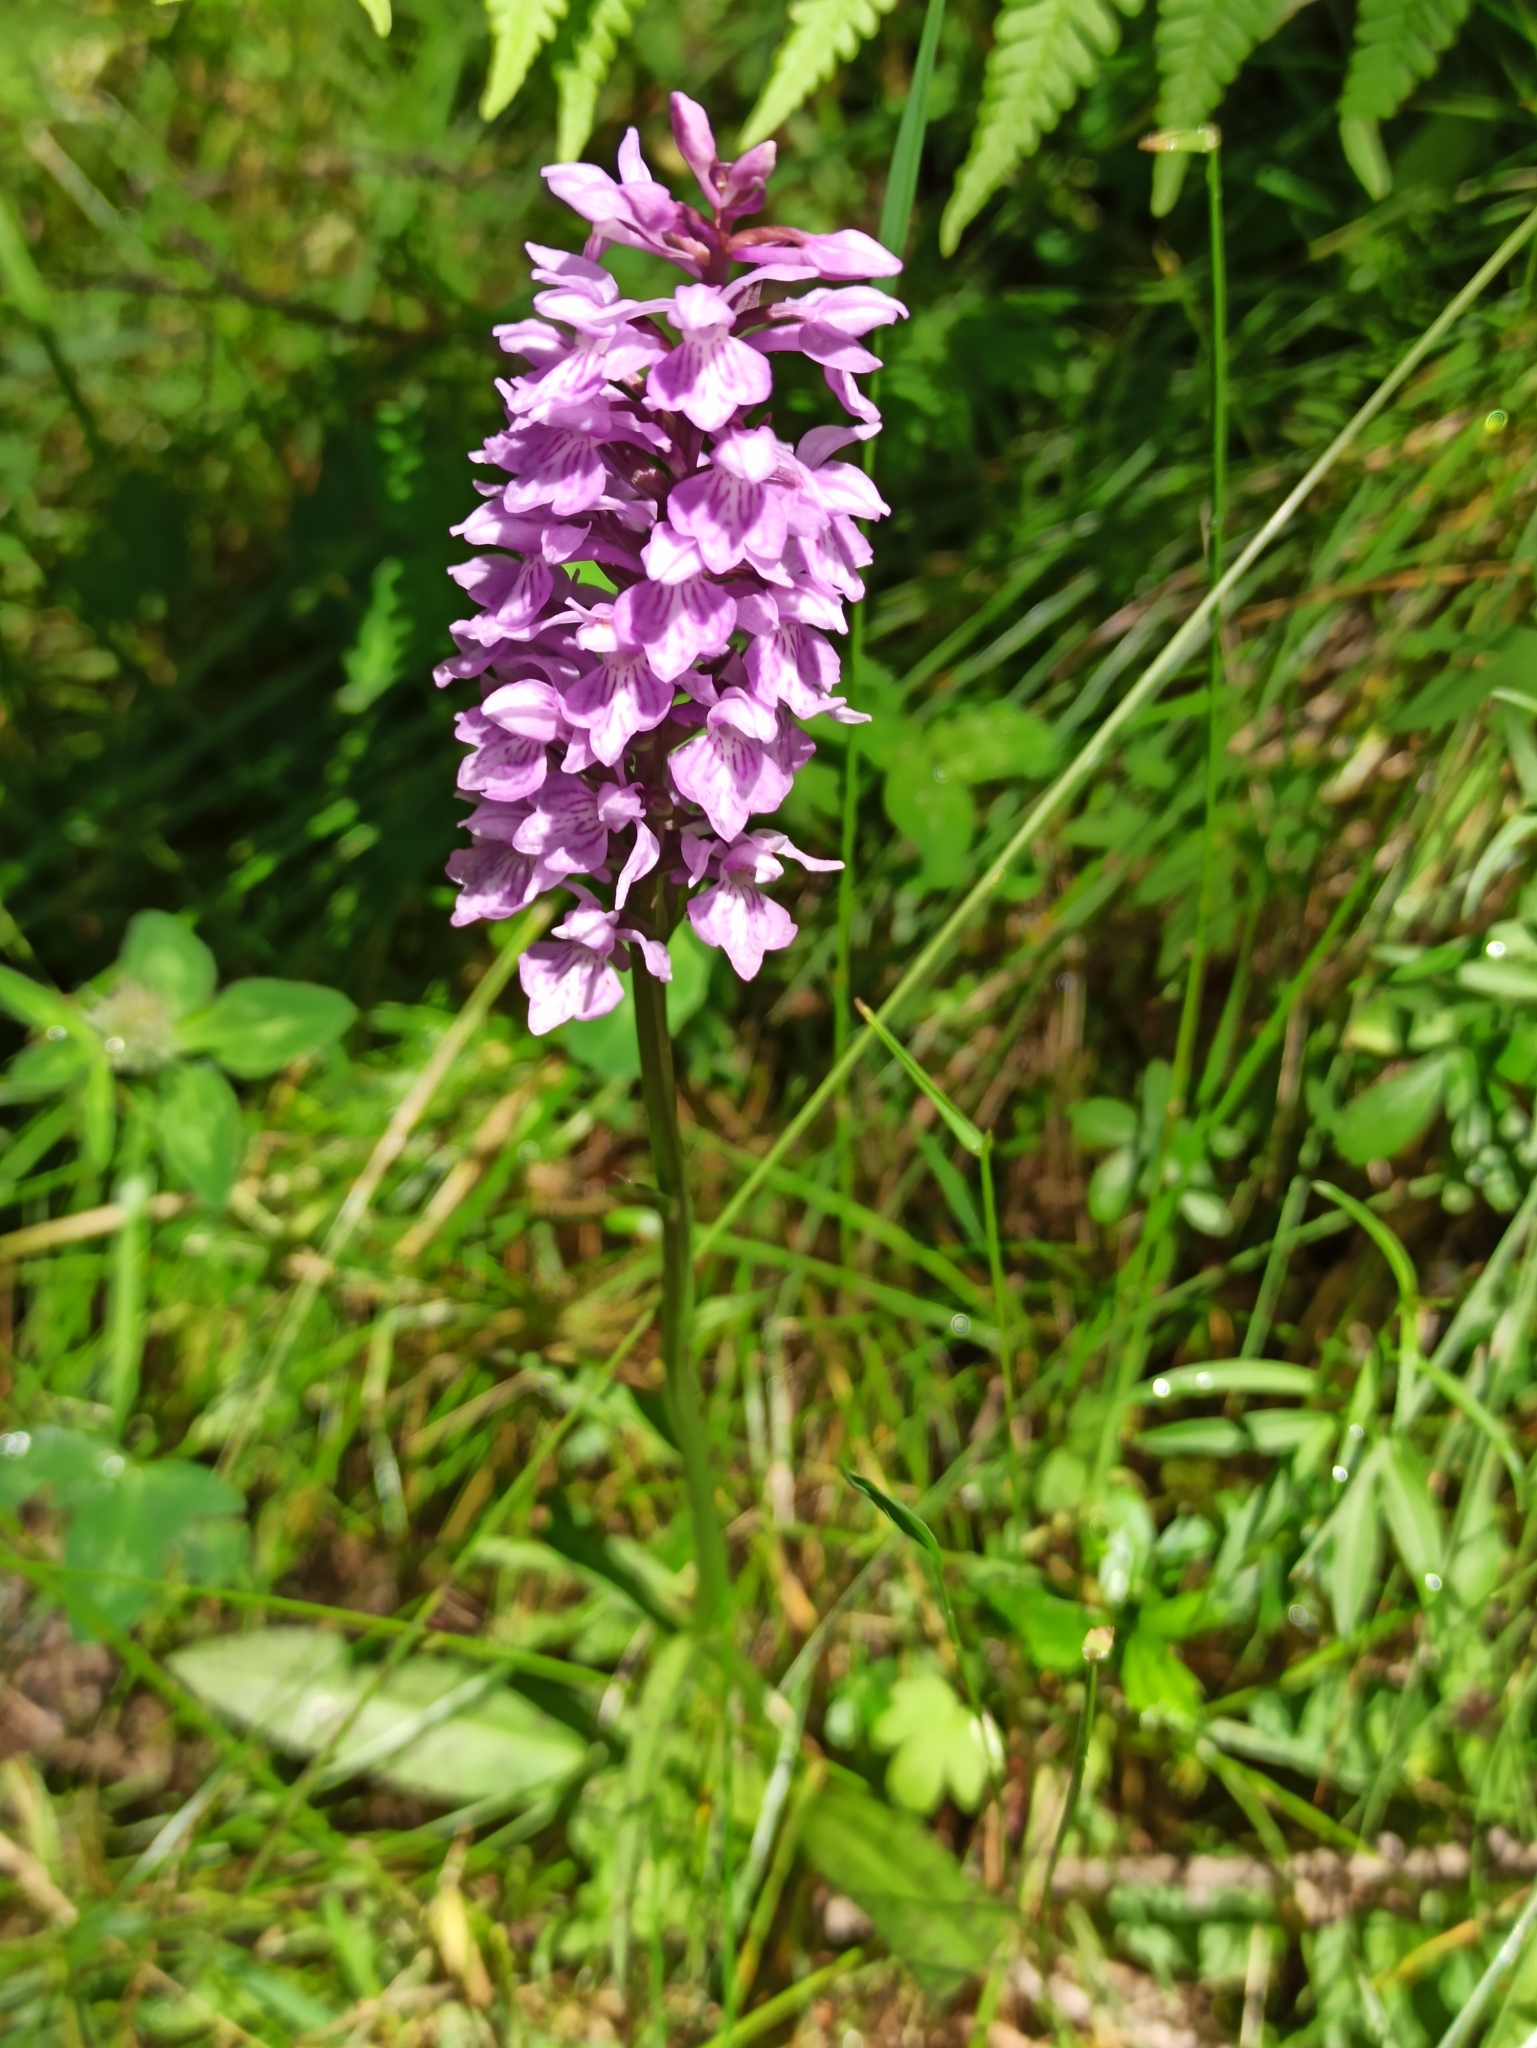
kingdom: Plantae
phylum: Tracheophyta
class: Liliopsida
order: Asparagales
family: Orchidaceae
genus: Dactylorhiza
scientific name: Dactylorhiza maculata
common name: Heath spotted-orchid
